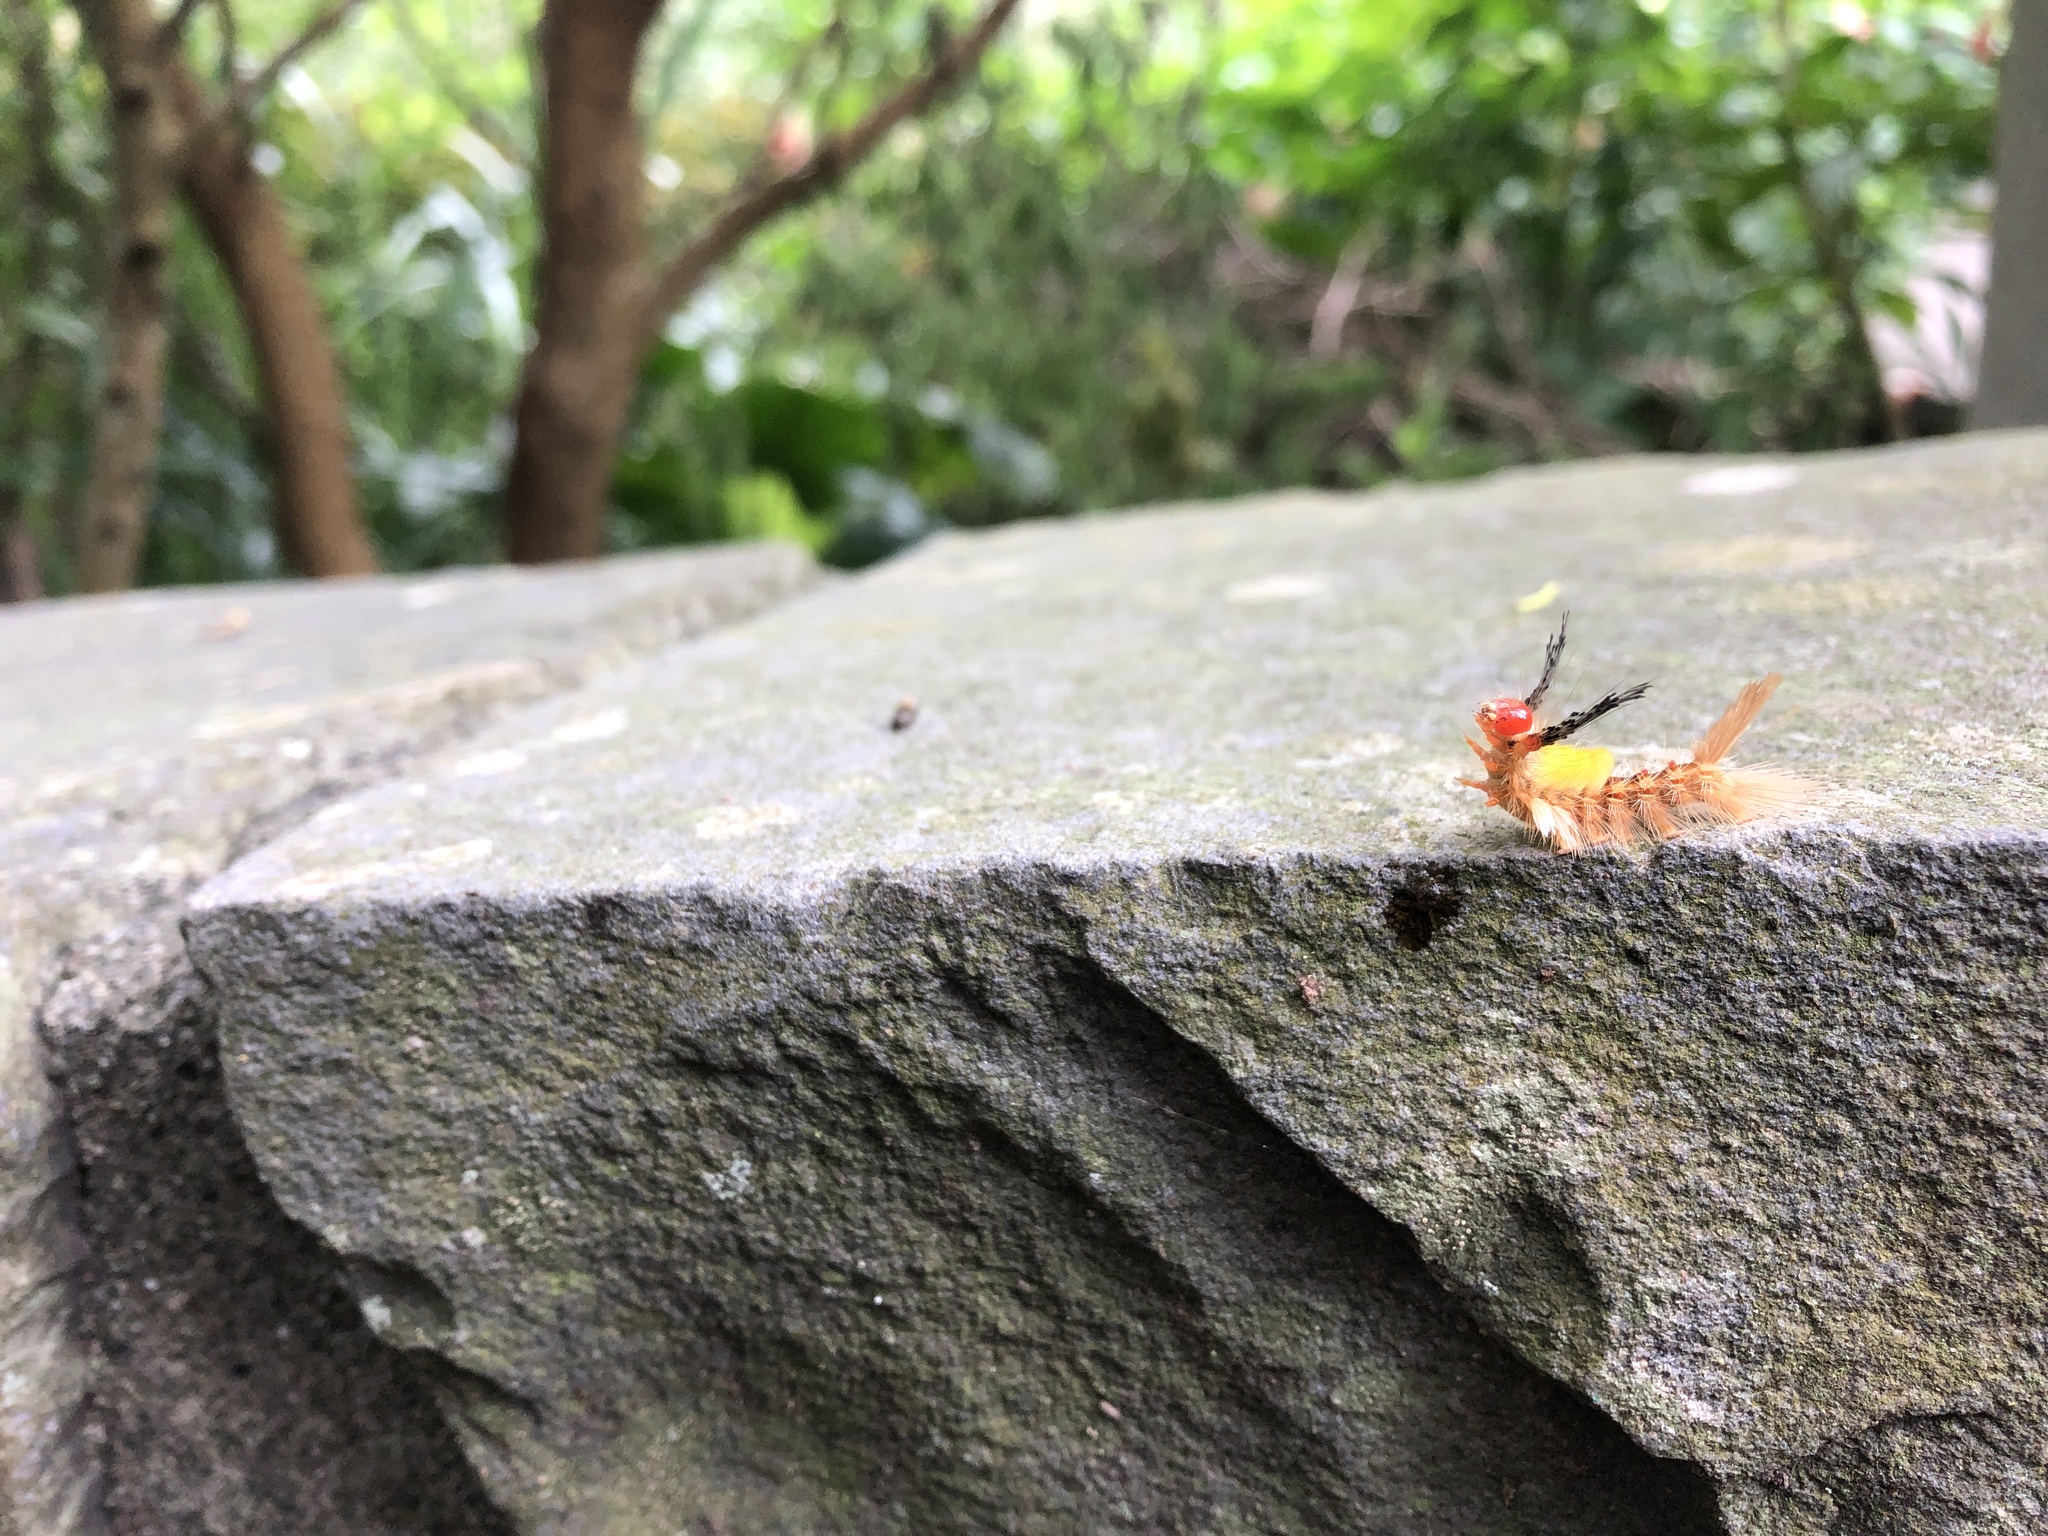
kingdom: Animalia
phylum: Arthropoda
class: Insecta
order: Lepidoptera
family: Erebidae
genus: Orgyia
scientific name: Orgyia postica
